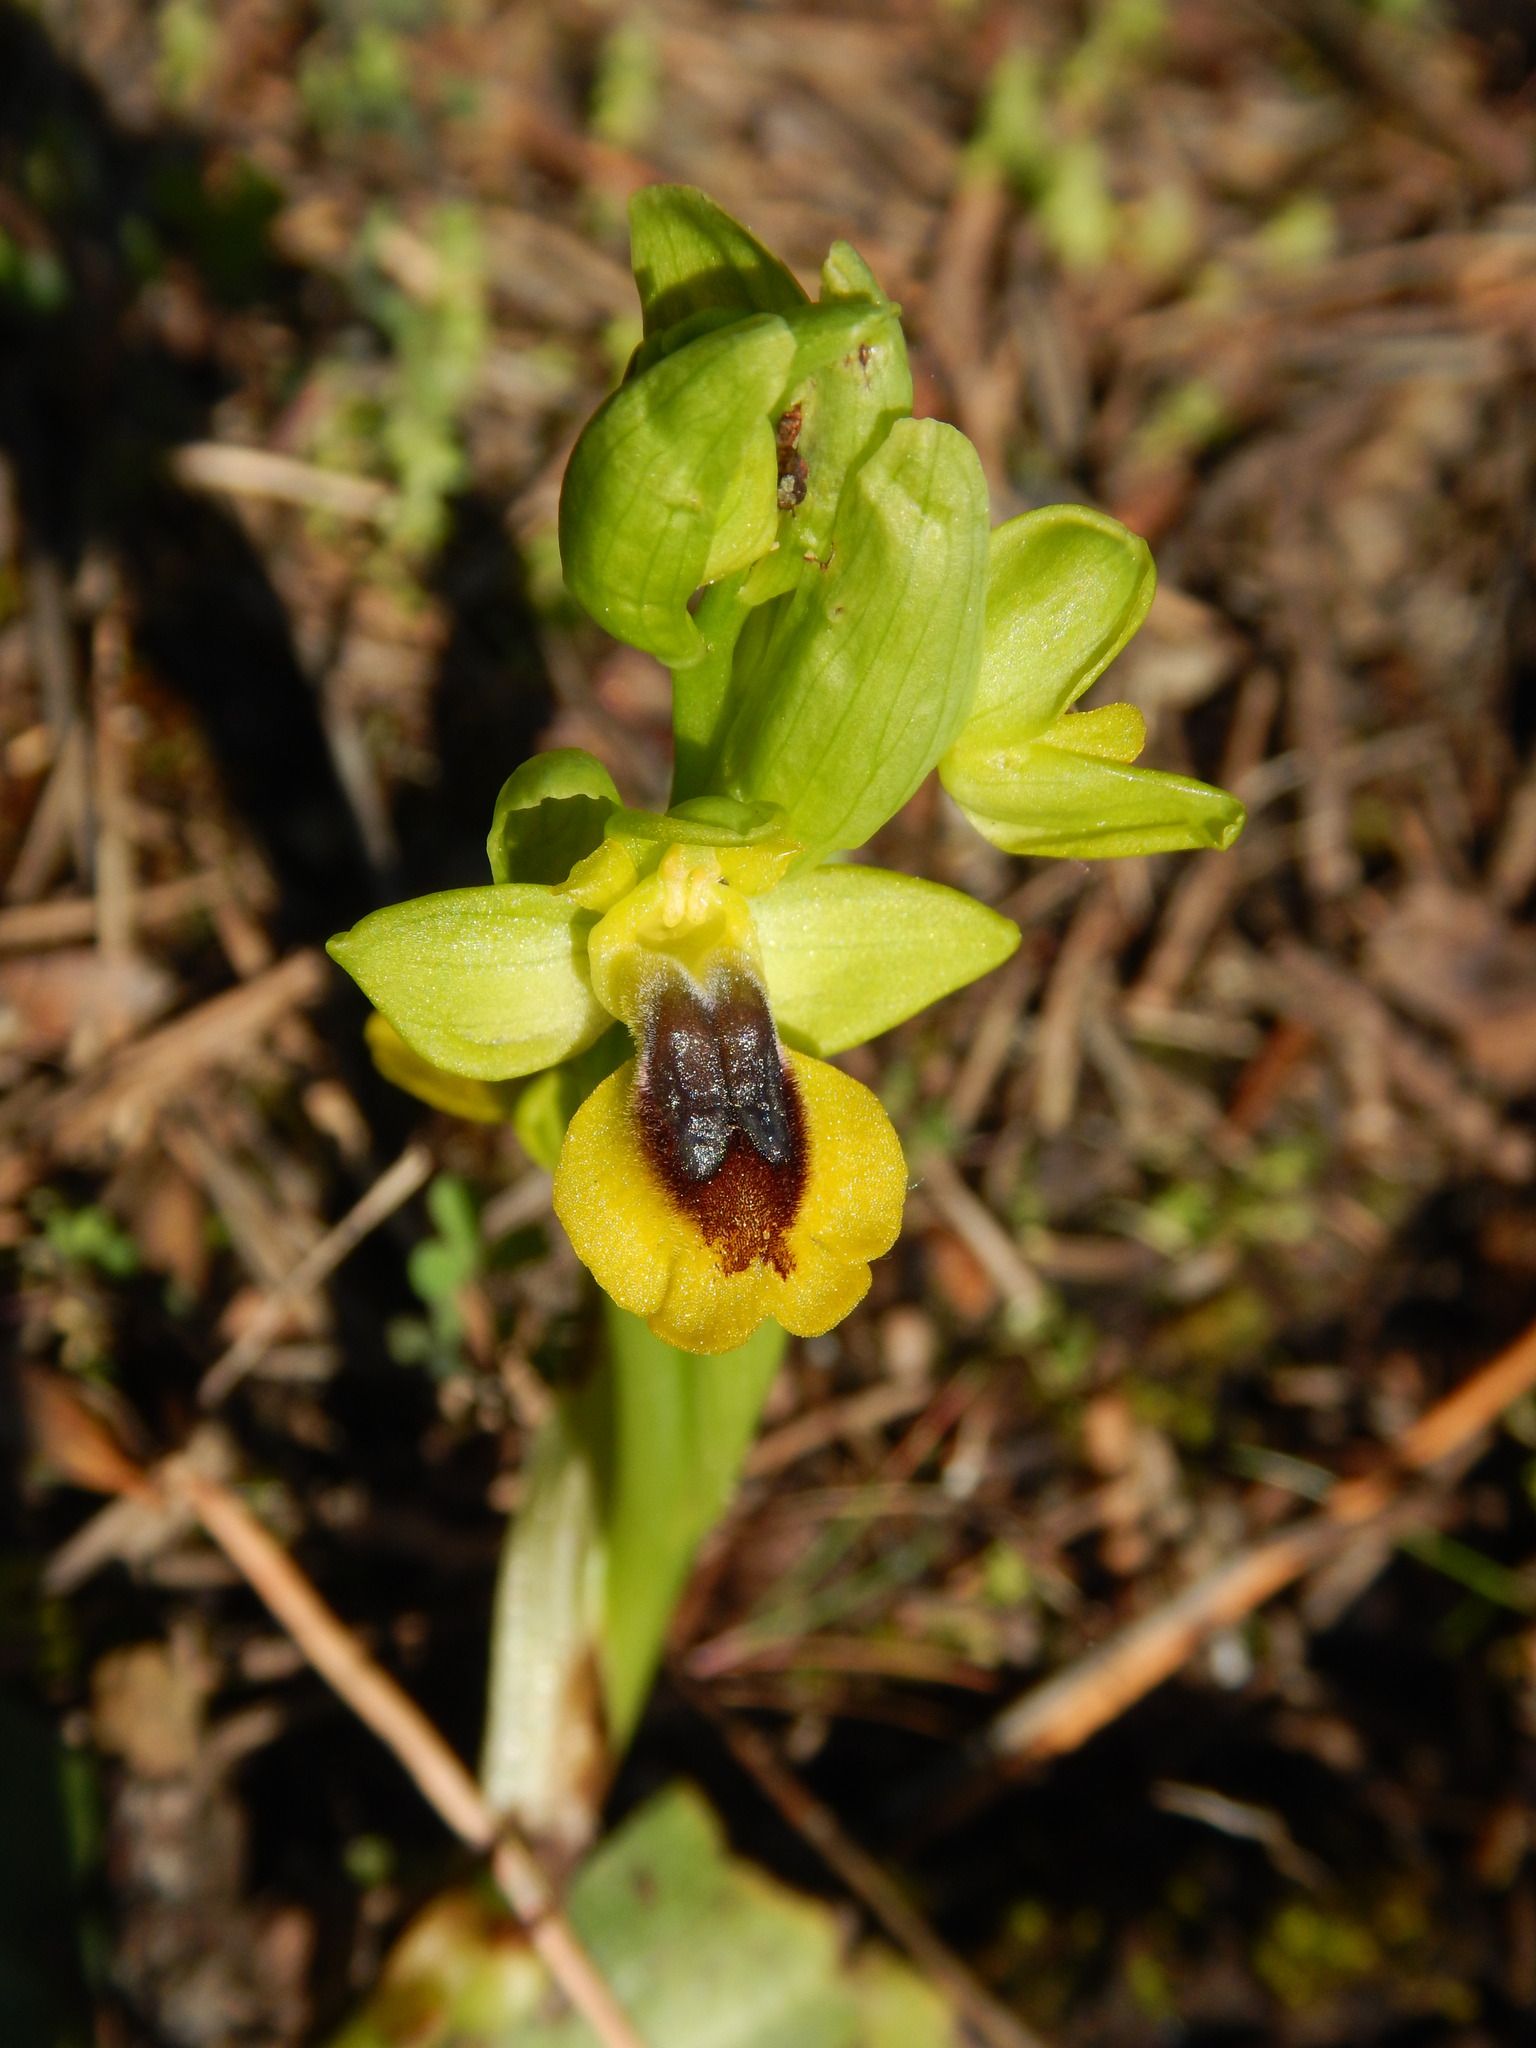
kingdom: Plantae
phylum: Tracheophyta
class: Liliopsida
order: Asparagales
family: Orchidaceae
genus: Ophrys
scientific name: Ophrys lutea
